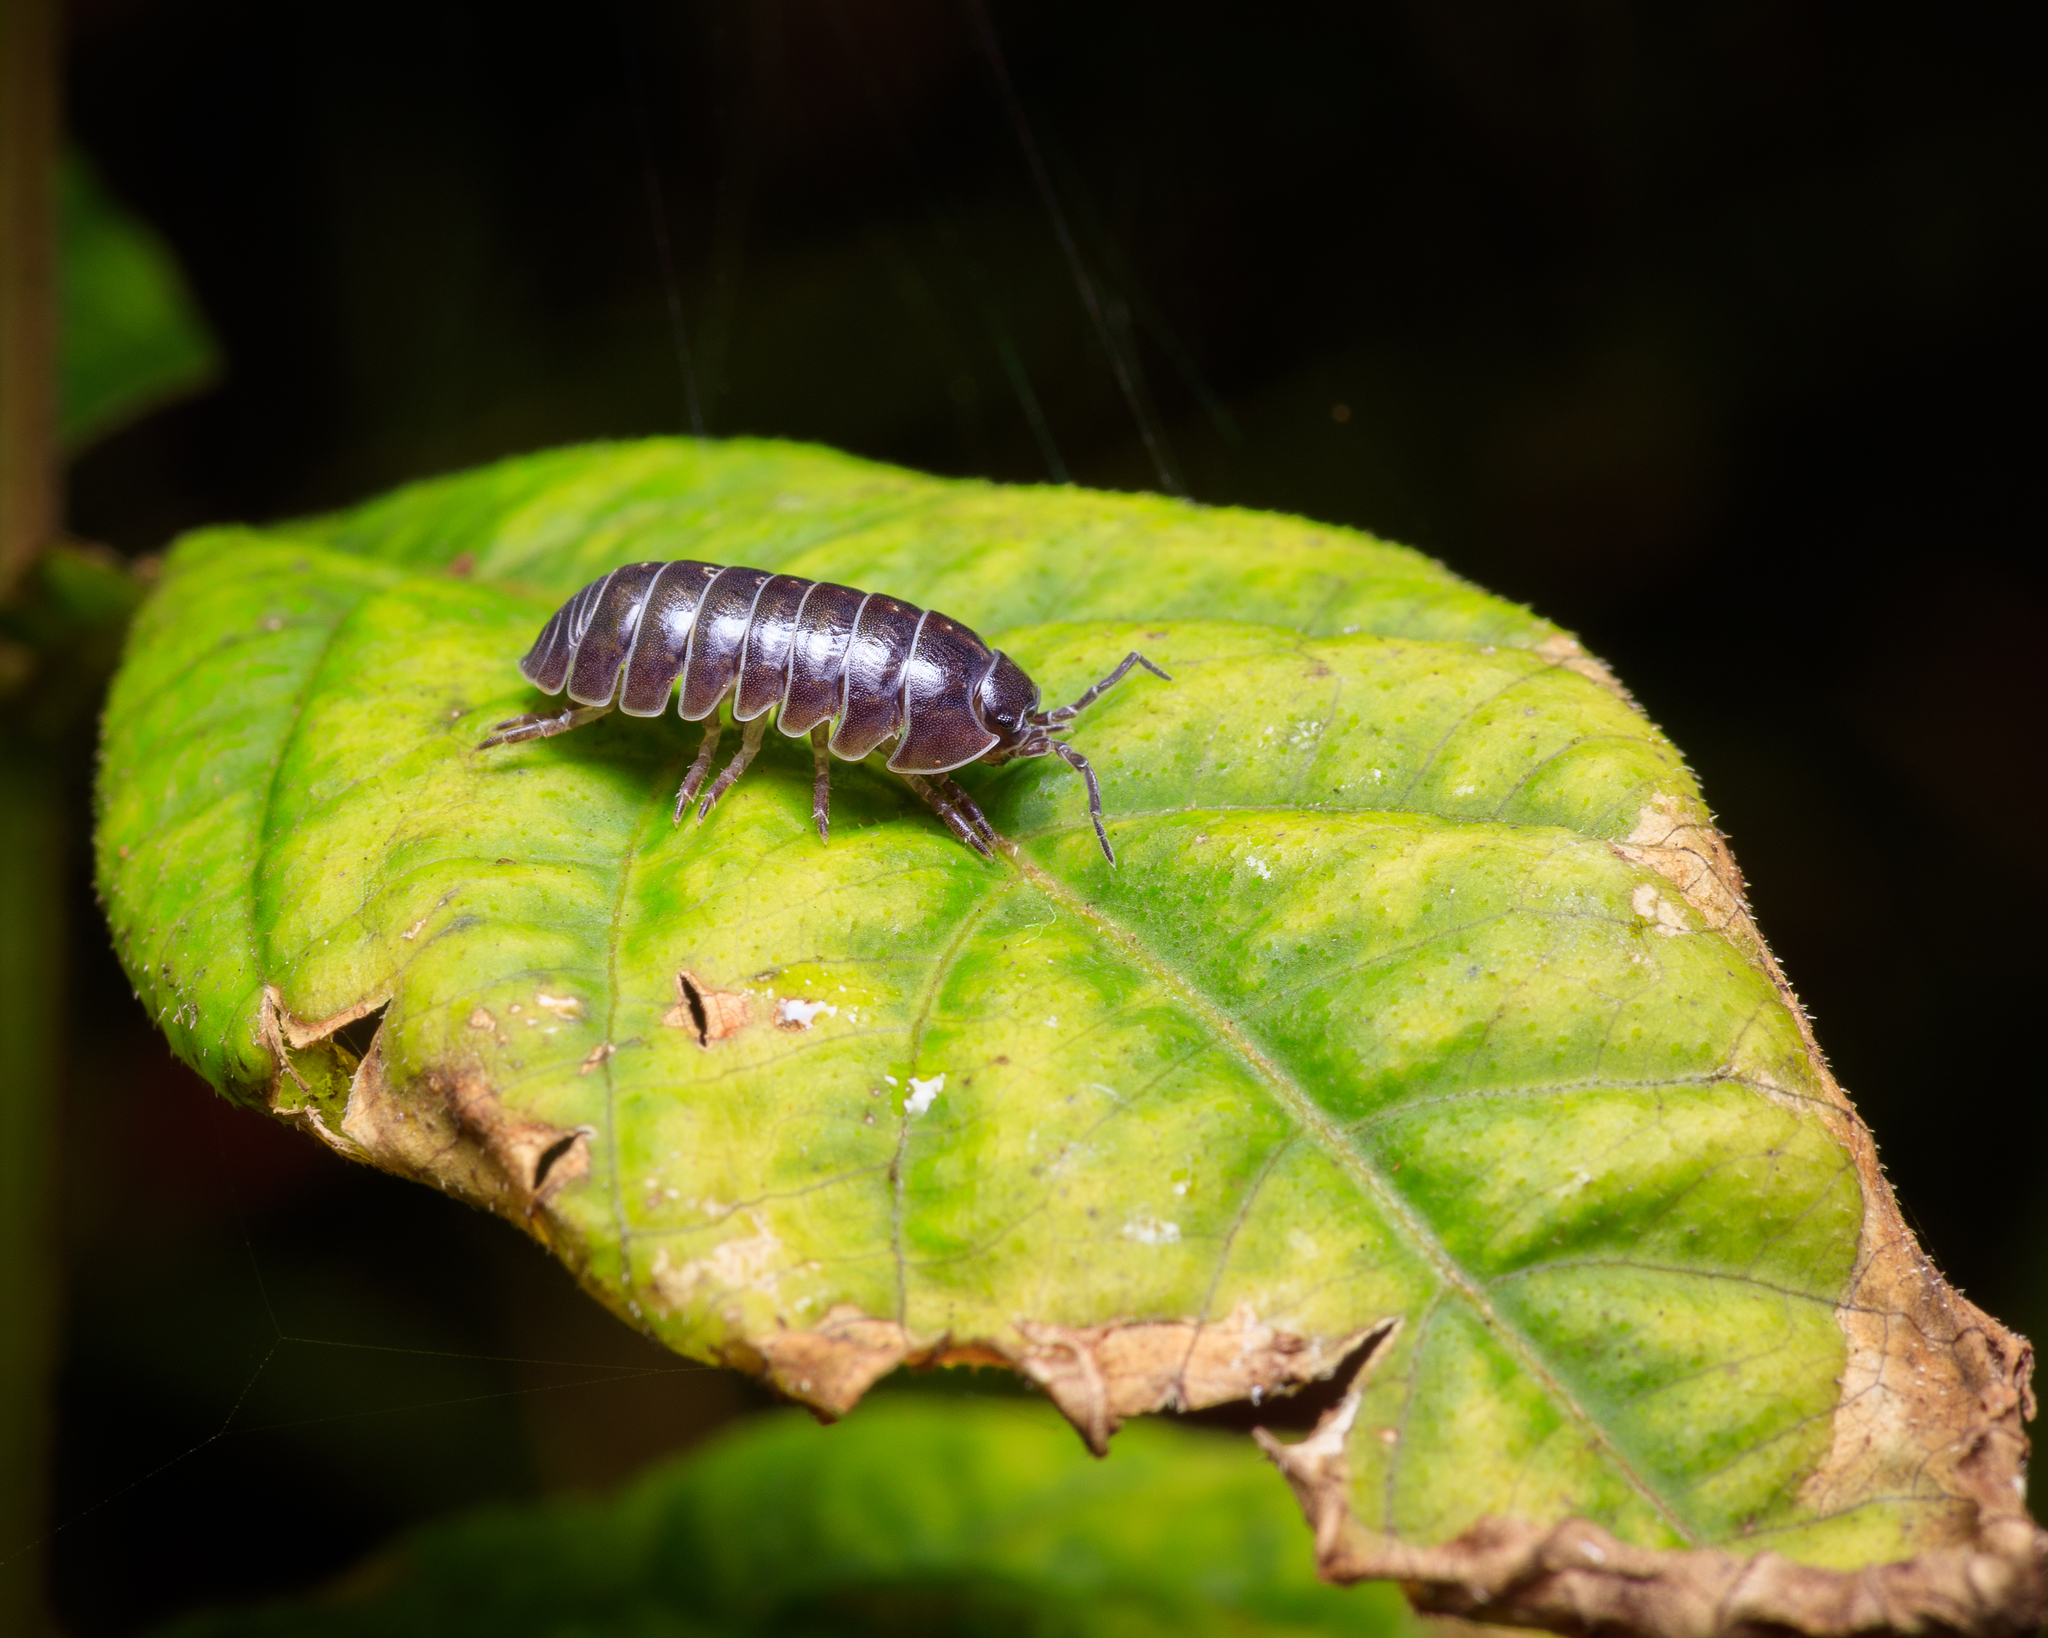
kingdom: Animalia
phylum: Arthropoda
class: Malacostraca
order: Isopoda
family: Armadillidiidae
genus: Armadillidium
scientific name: Armadillidium vulgare
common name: Common pill woodlouse
